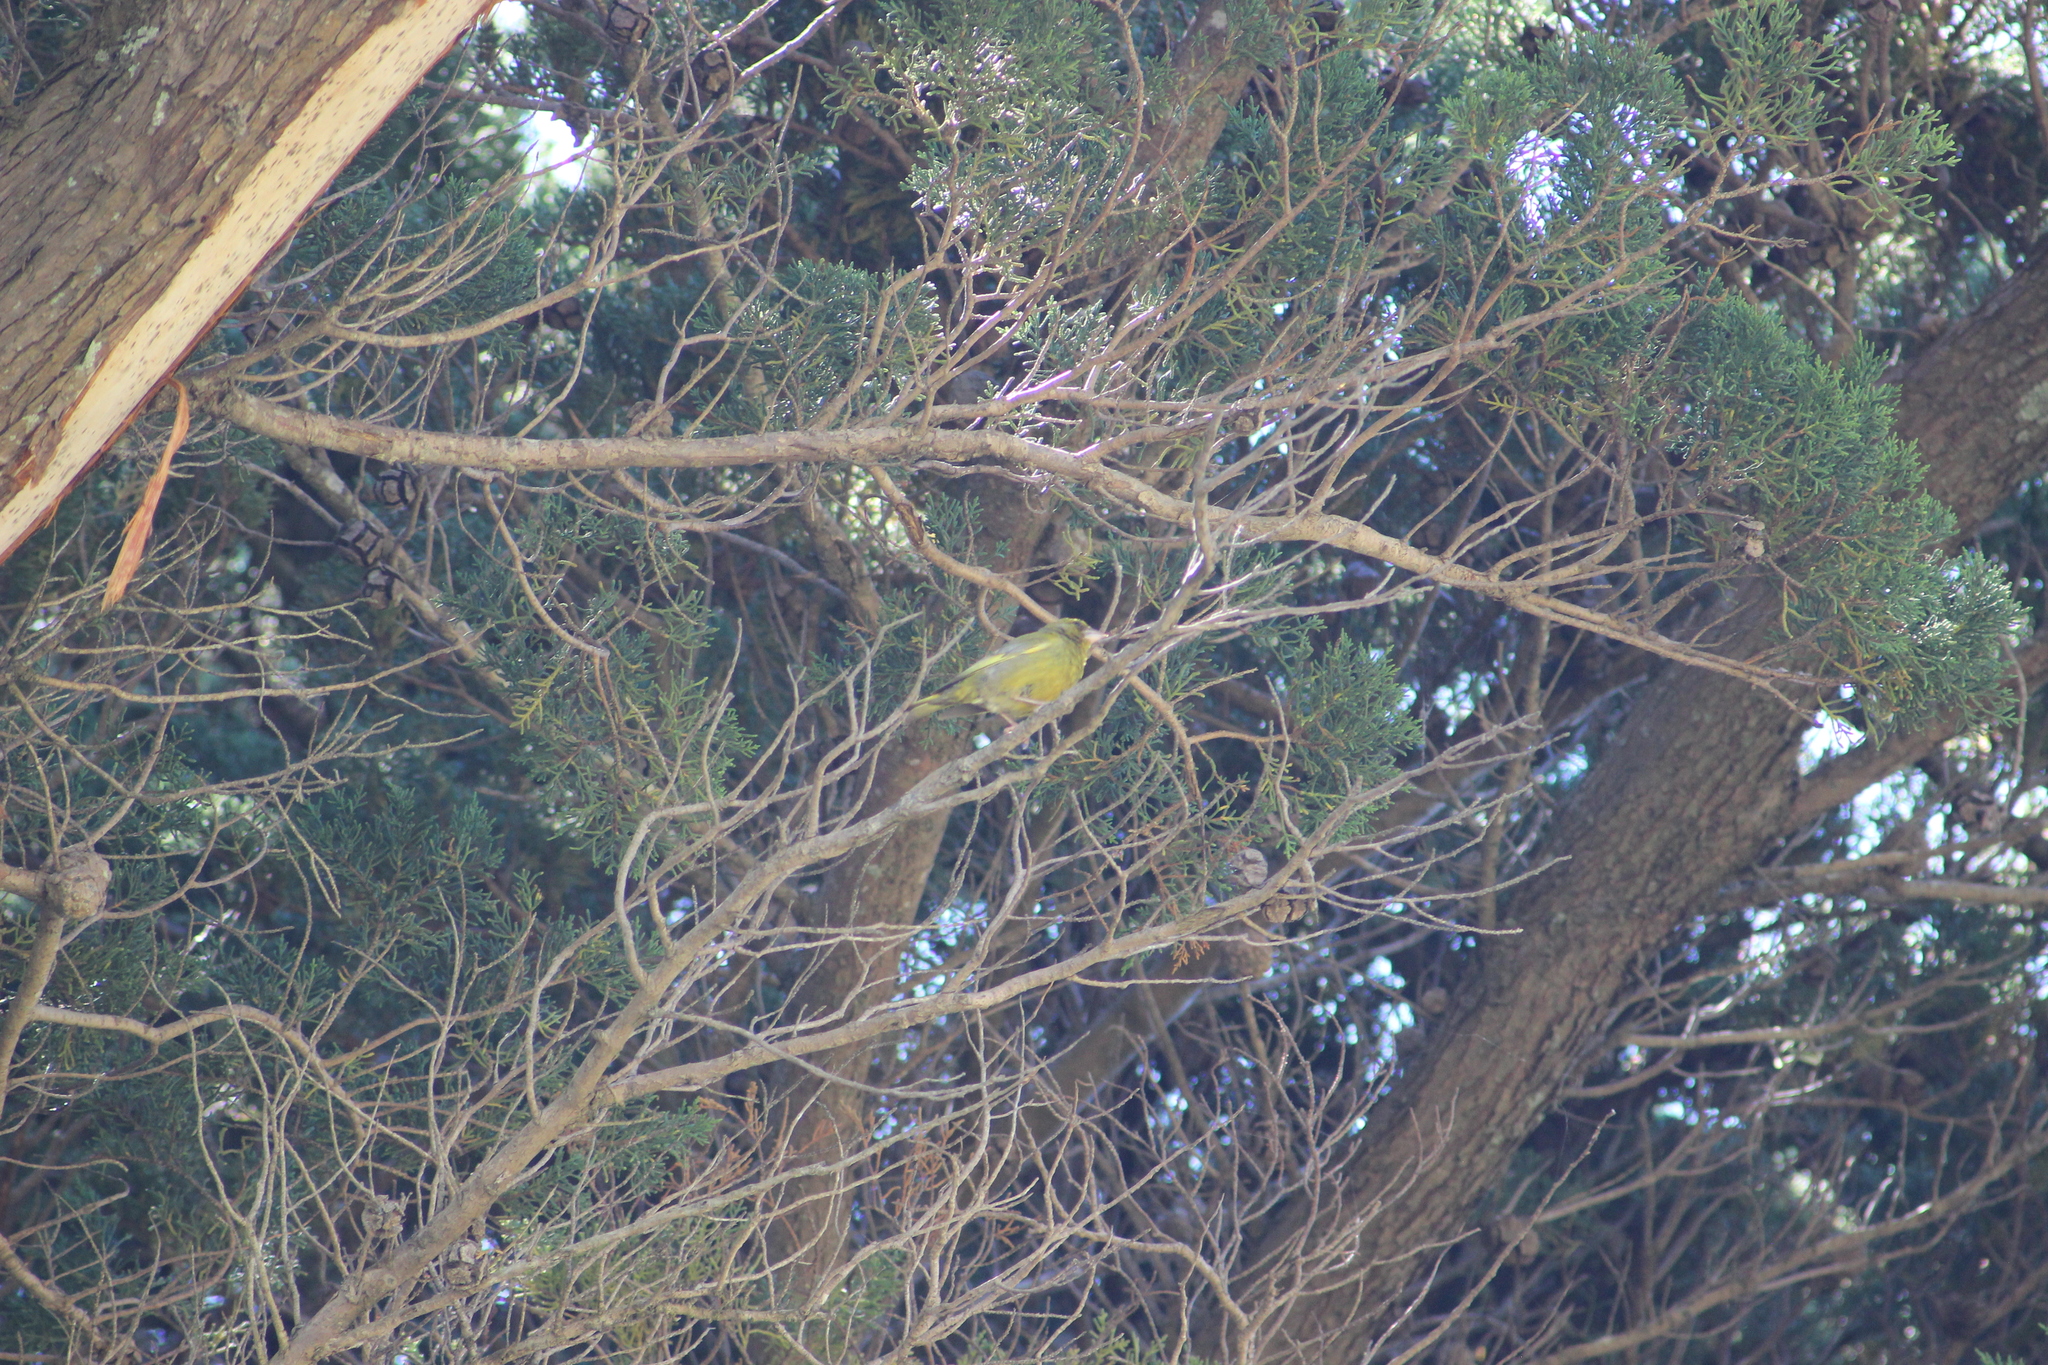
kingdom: Plantae
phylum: Tracheophyta
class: Liliopsida
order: Poales
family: Poaceae
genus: Chloris
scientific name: Chloris chloris
